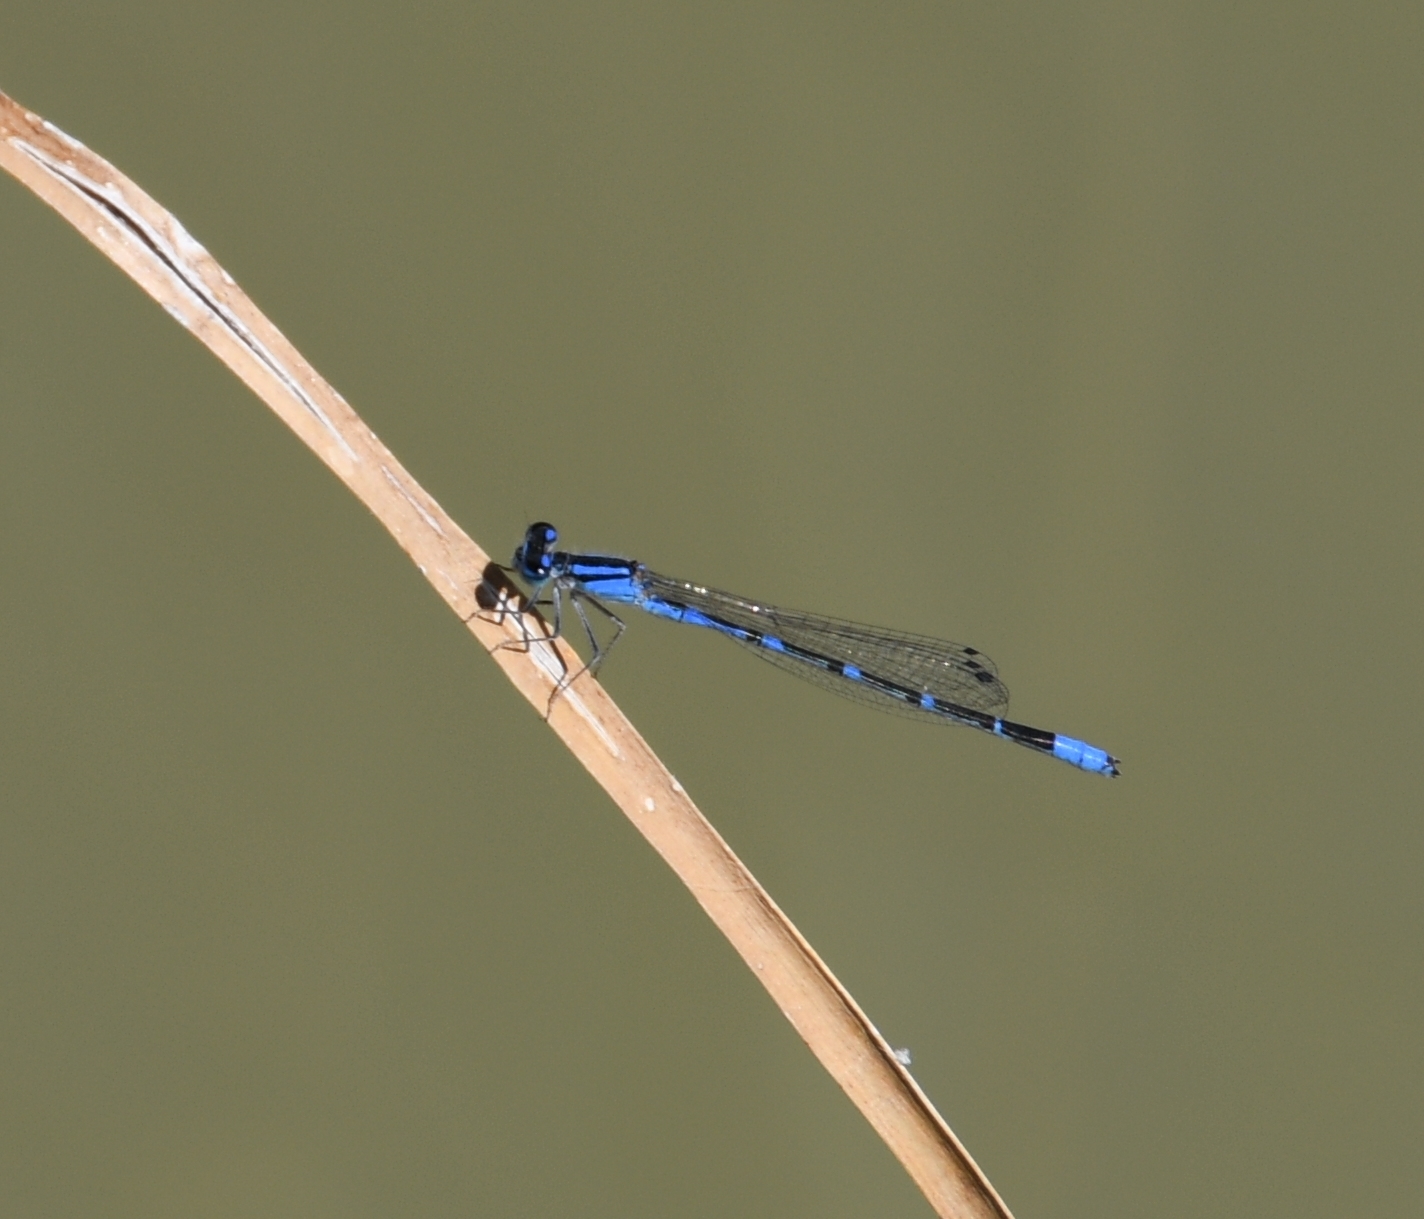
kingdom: Animalia
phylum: Arthropoda
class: Insecta
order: Odonata
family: Coenagrionidae
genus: Enallagma
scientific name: Enallagma praevarum
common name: Arroyo bluet
